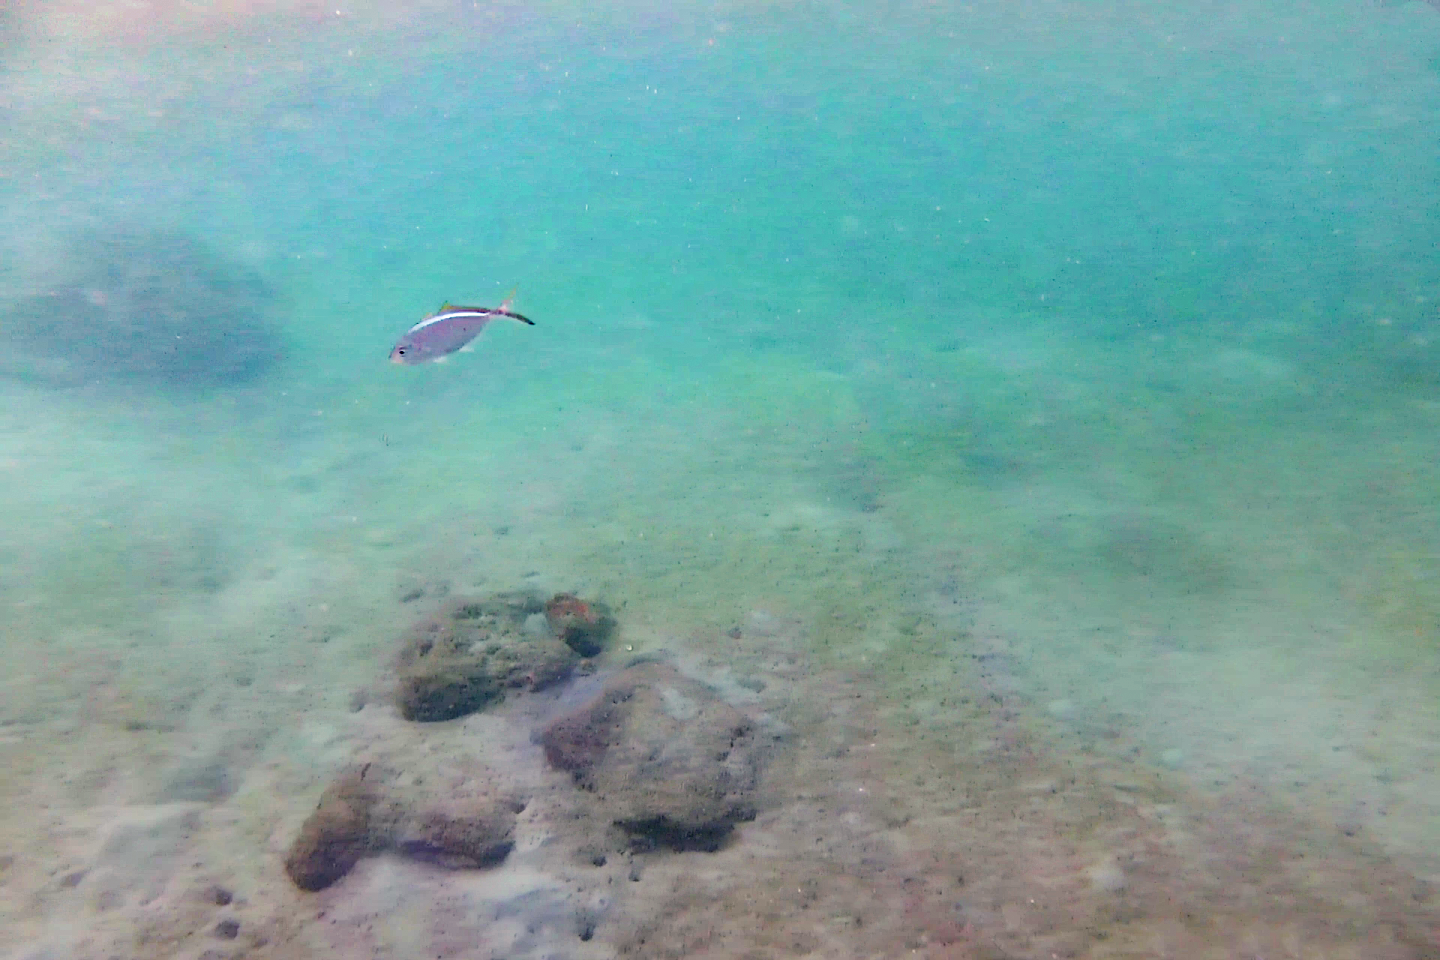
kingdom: Animalia
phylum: Chordata
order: Perciformes
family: Carangidae
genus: Caranx
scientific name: Caranx ruber
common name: Bar jack
